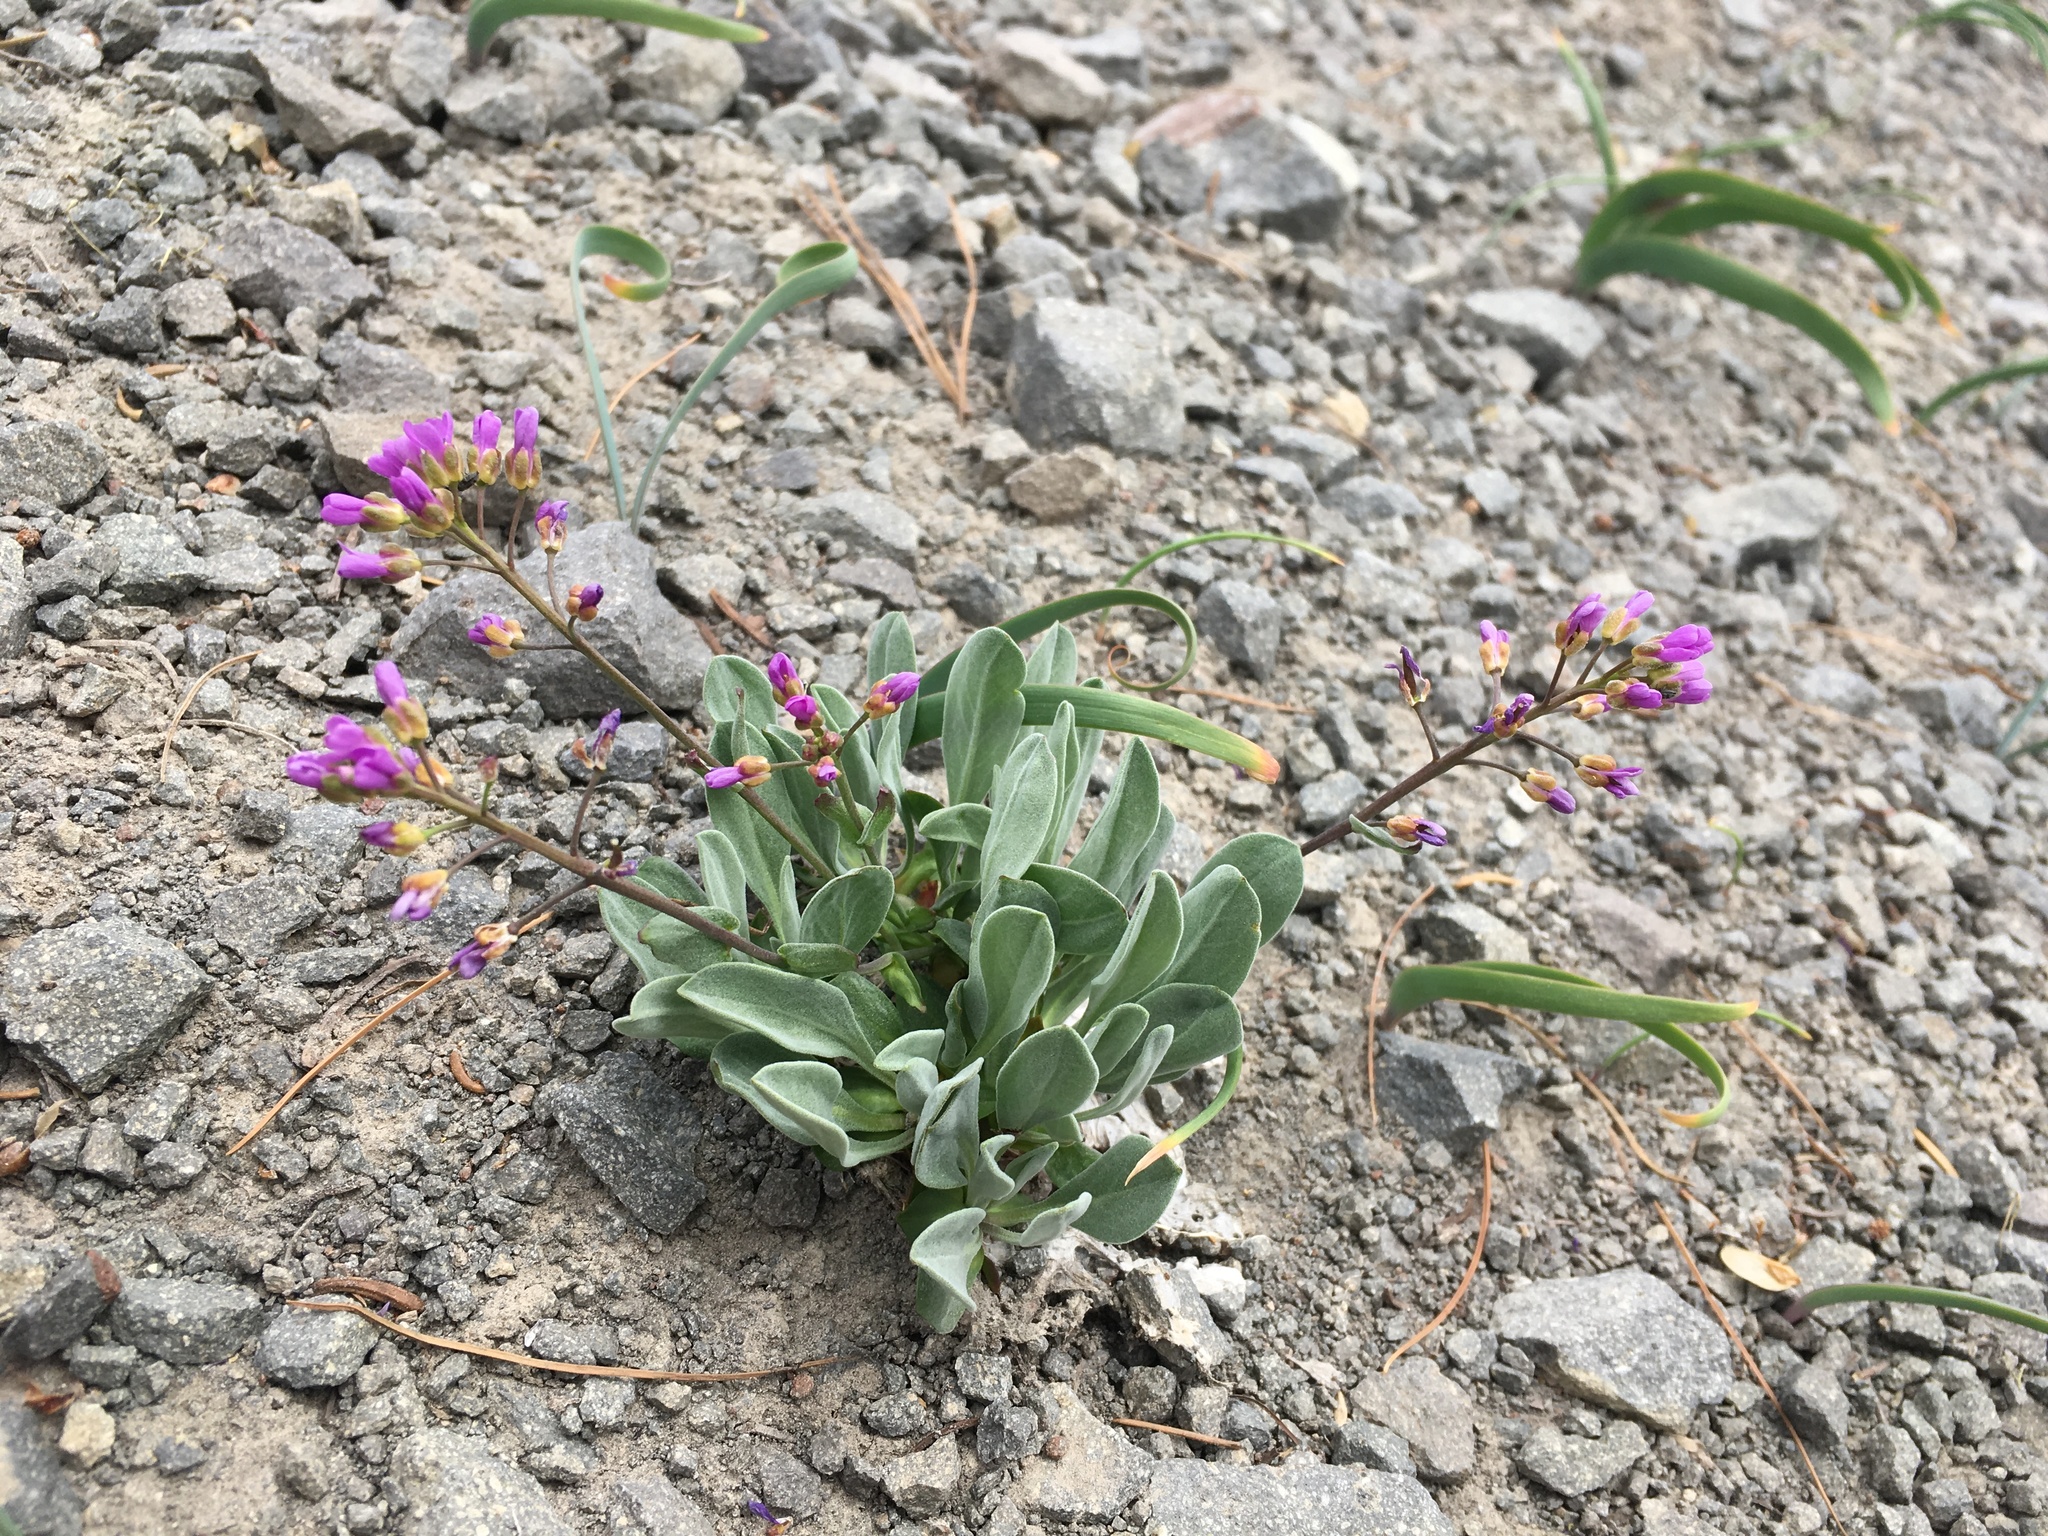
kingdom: Plantae
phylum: Tracheophyta
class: Magnoliopsida
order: Brassicales
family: Brassicaceae
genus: Phoenicaulis
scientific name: Phoenicaulis cheiranthoides
